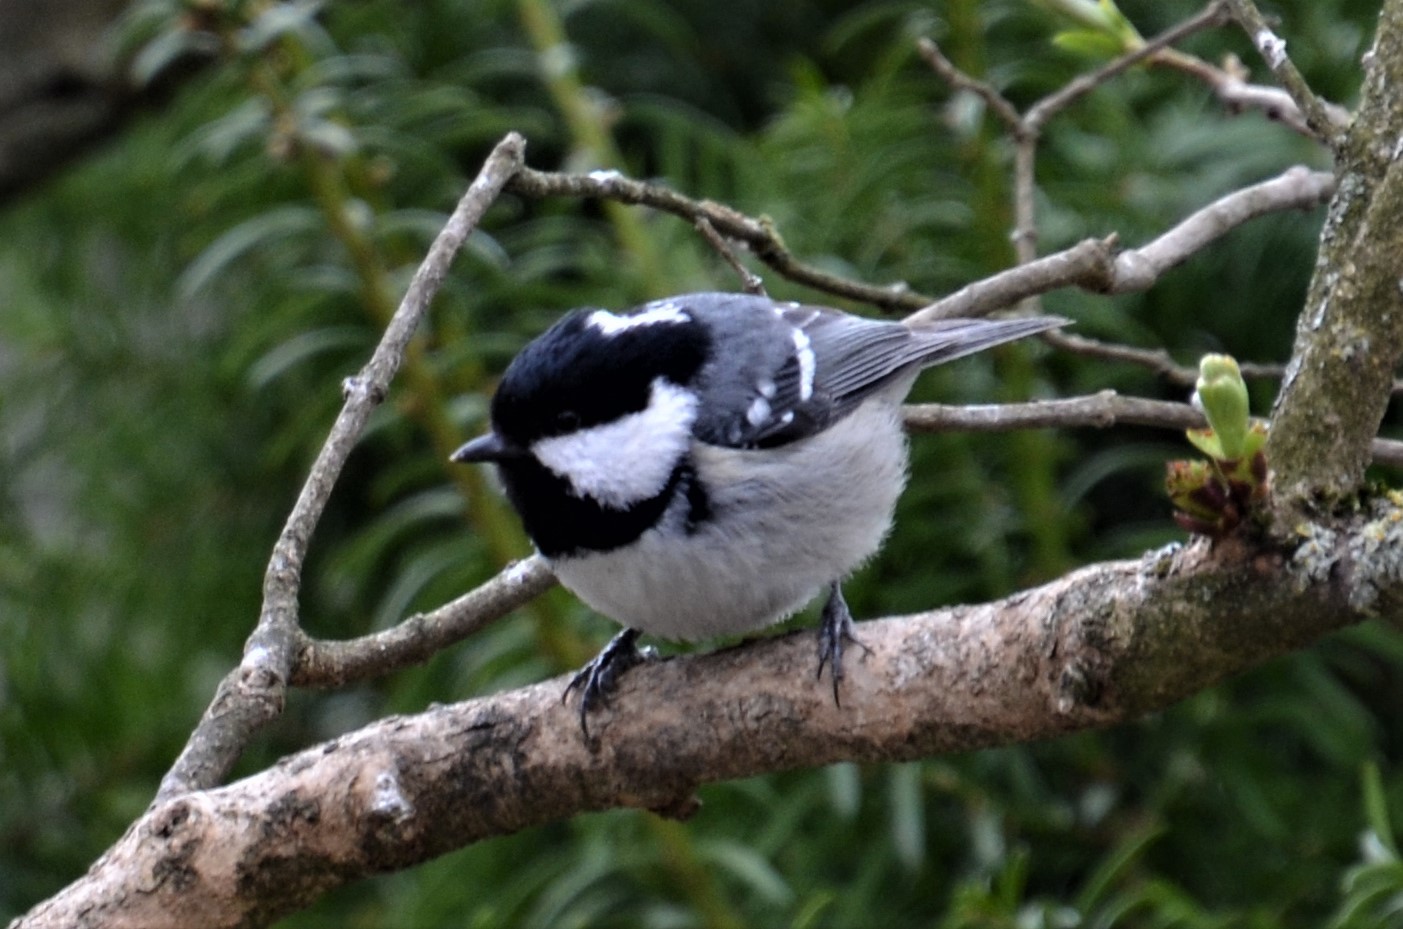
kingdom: Animalia
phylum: Chordata
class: Aves
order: Passeriformes
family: Paridae
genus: Periparus
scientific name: Periparus ater
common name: Coal tit
